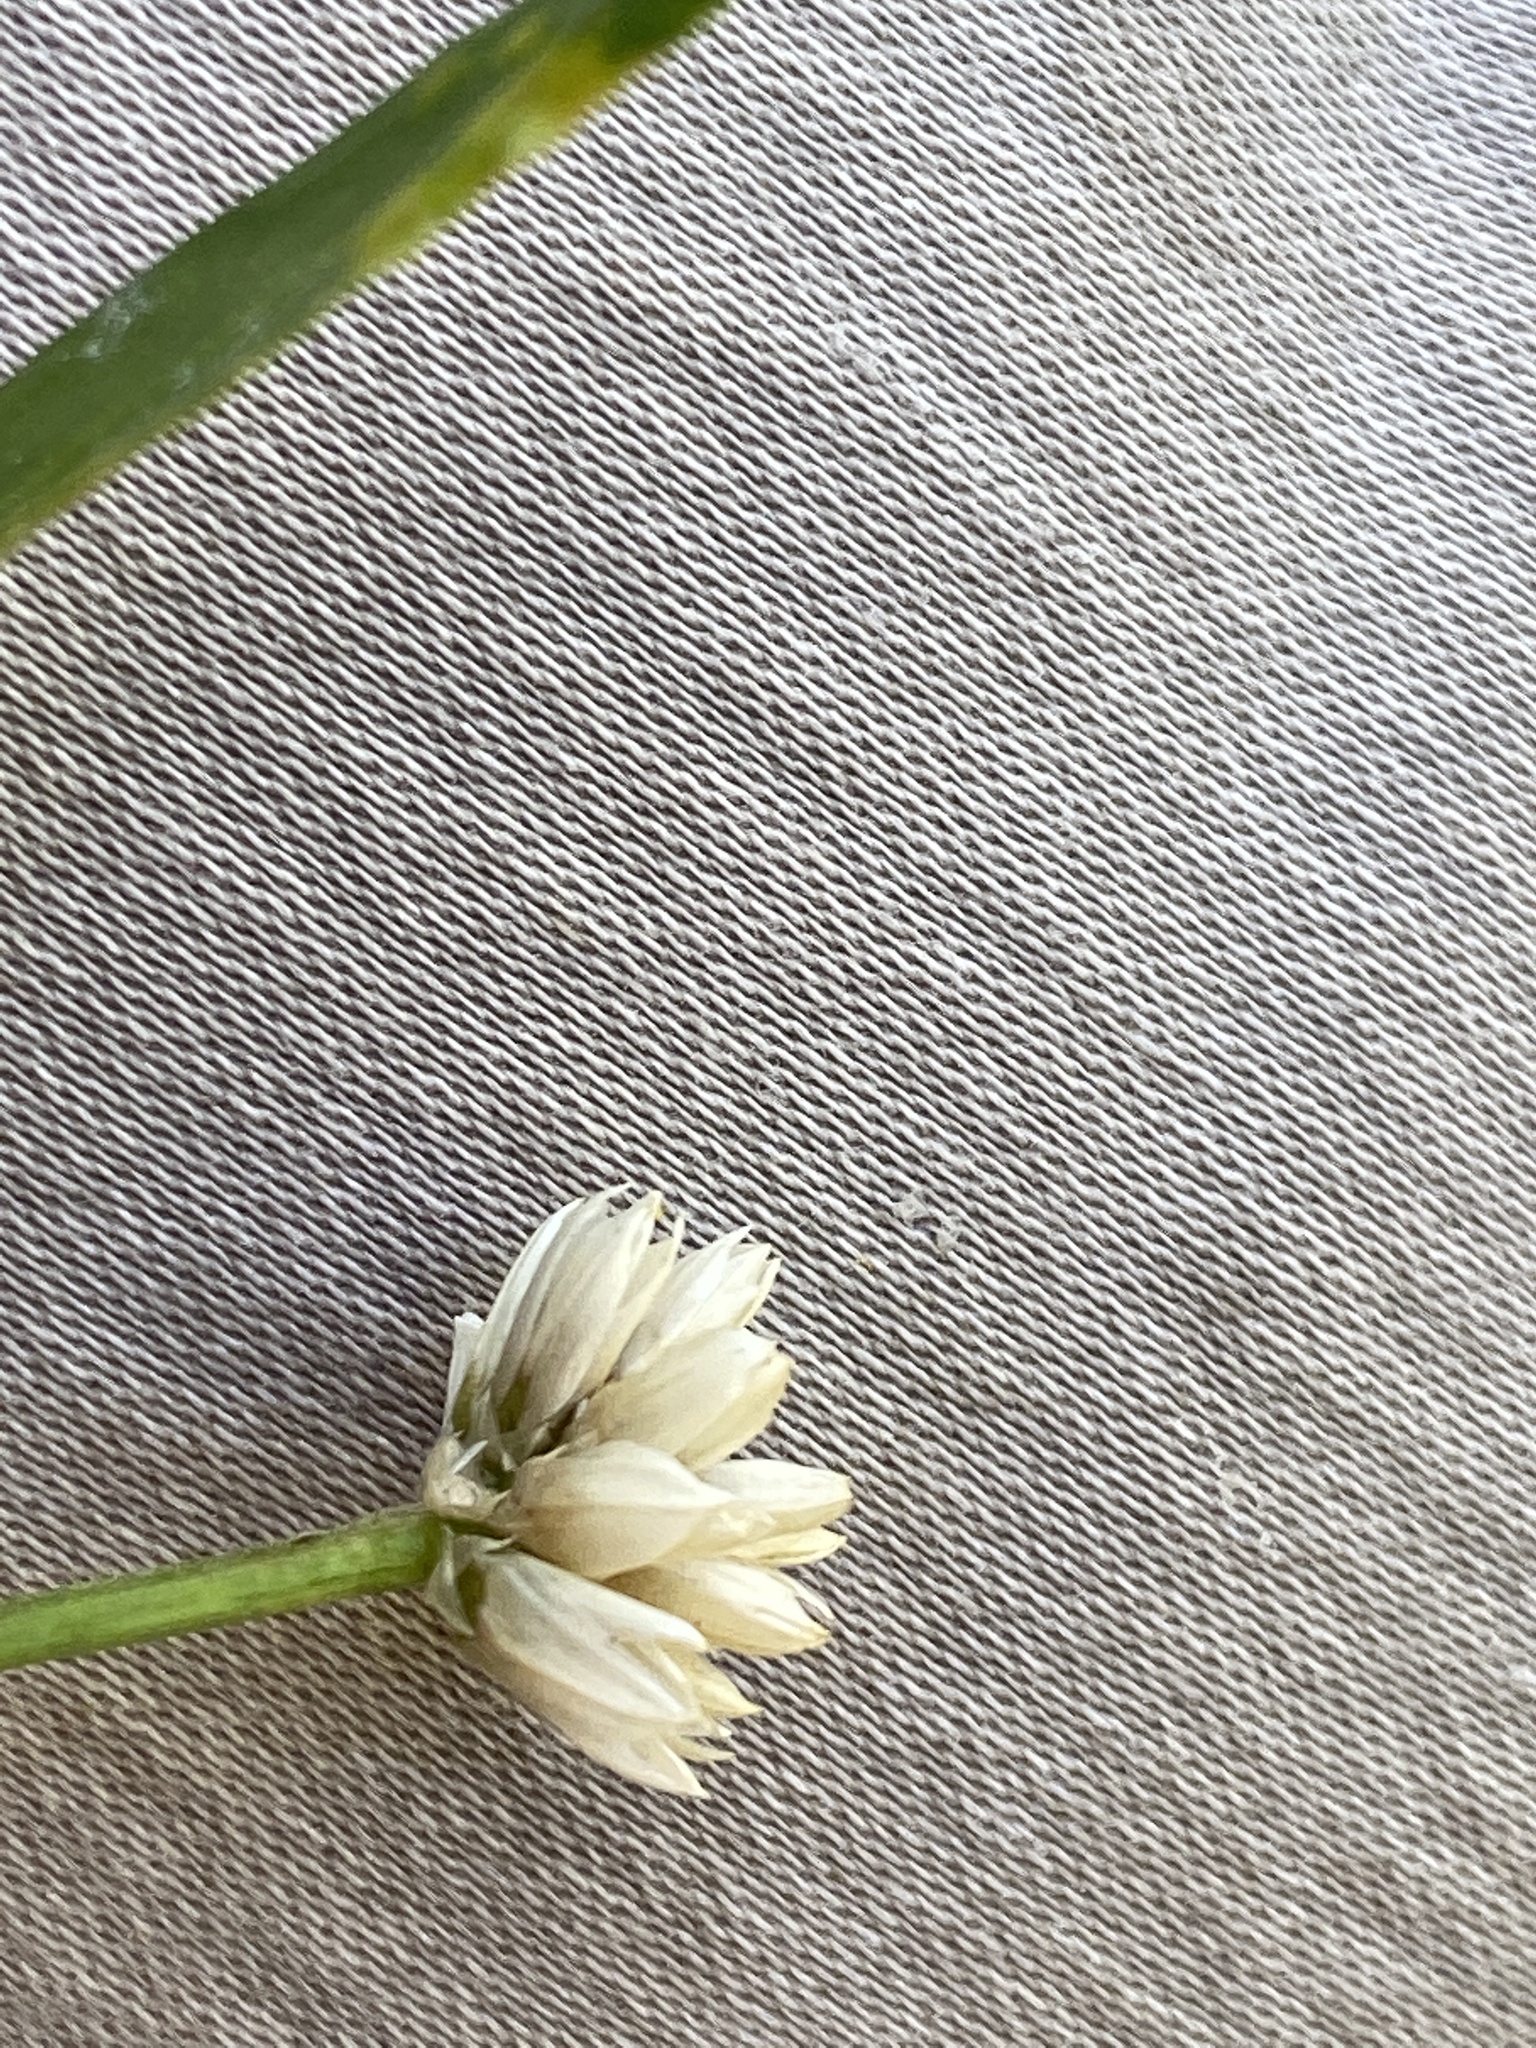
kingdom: Plantae
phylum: Tracheophyta
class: Magnoliopsida
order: Caryophyllales
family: Amaranthaceae
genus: Alternanthera
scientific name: Alternanthera philoxeroides
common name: Alligatorweed
